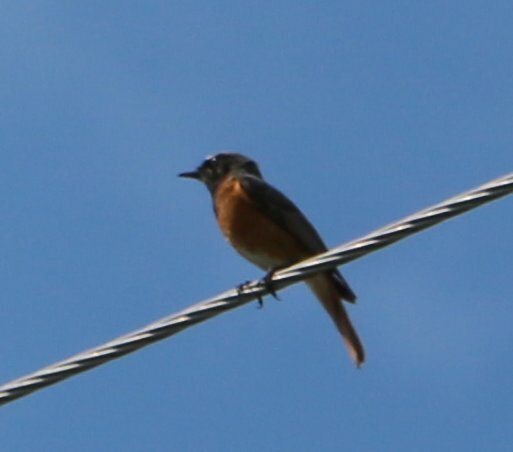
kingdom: Animalia
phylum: Chordata
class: Aves
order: Passeriformes
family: Muscicapidae
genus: Phoenicurus
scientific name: Phoenicurus phoenicurus
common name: Common redstart
